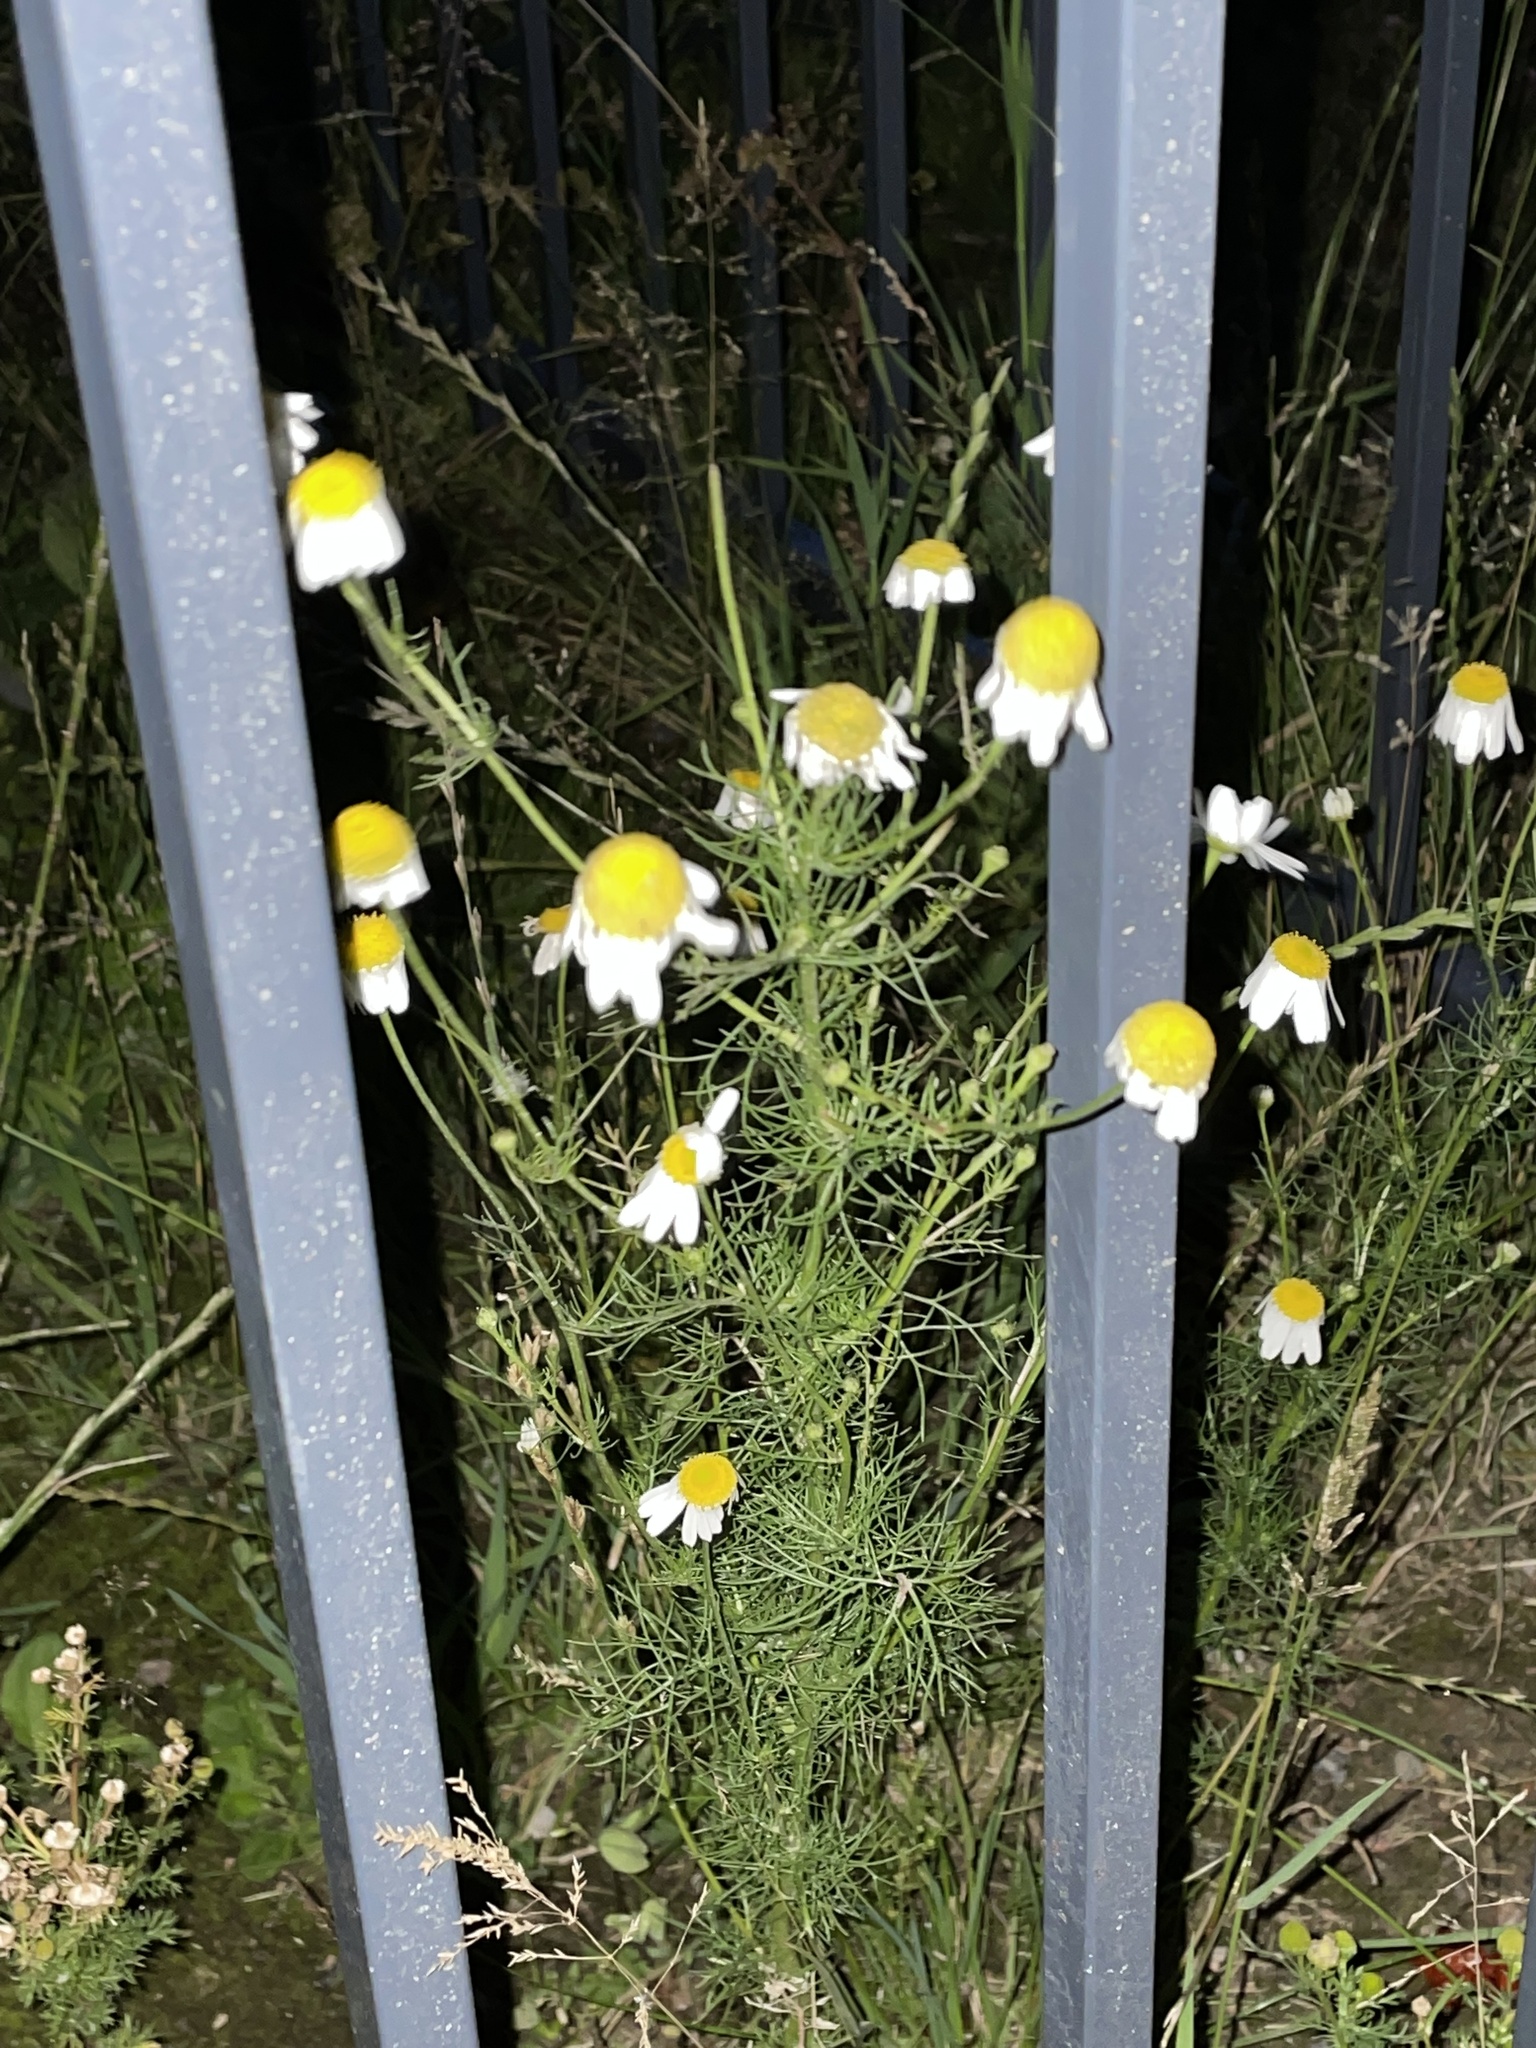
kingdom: Plantae
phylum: Tracheophyta
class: Magnoliopsida
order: Asterales
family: Asteraceae
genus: Tripleurospermum
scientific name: Tripleurospermum inodorum
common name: Scentless mayweed
